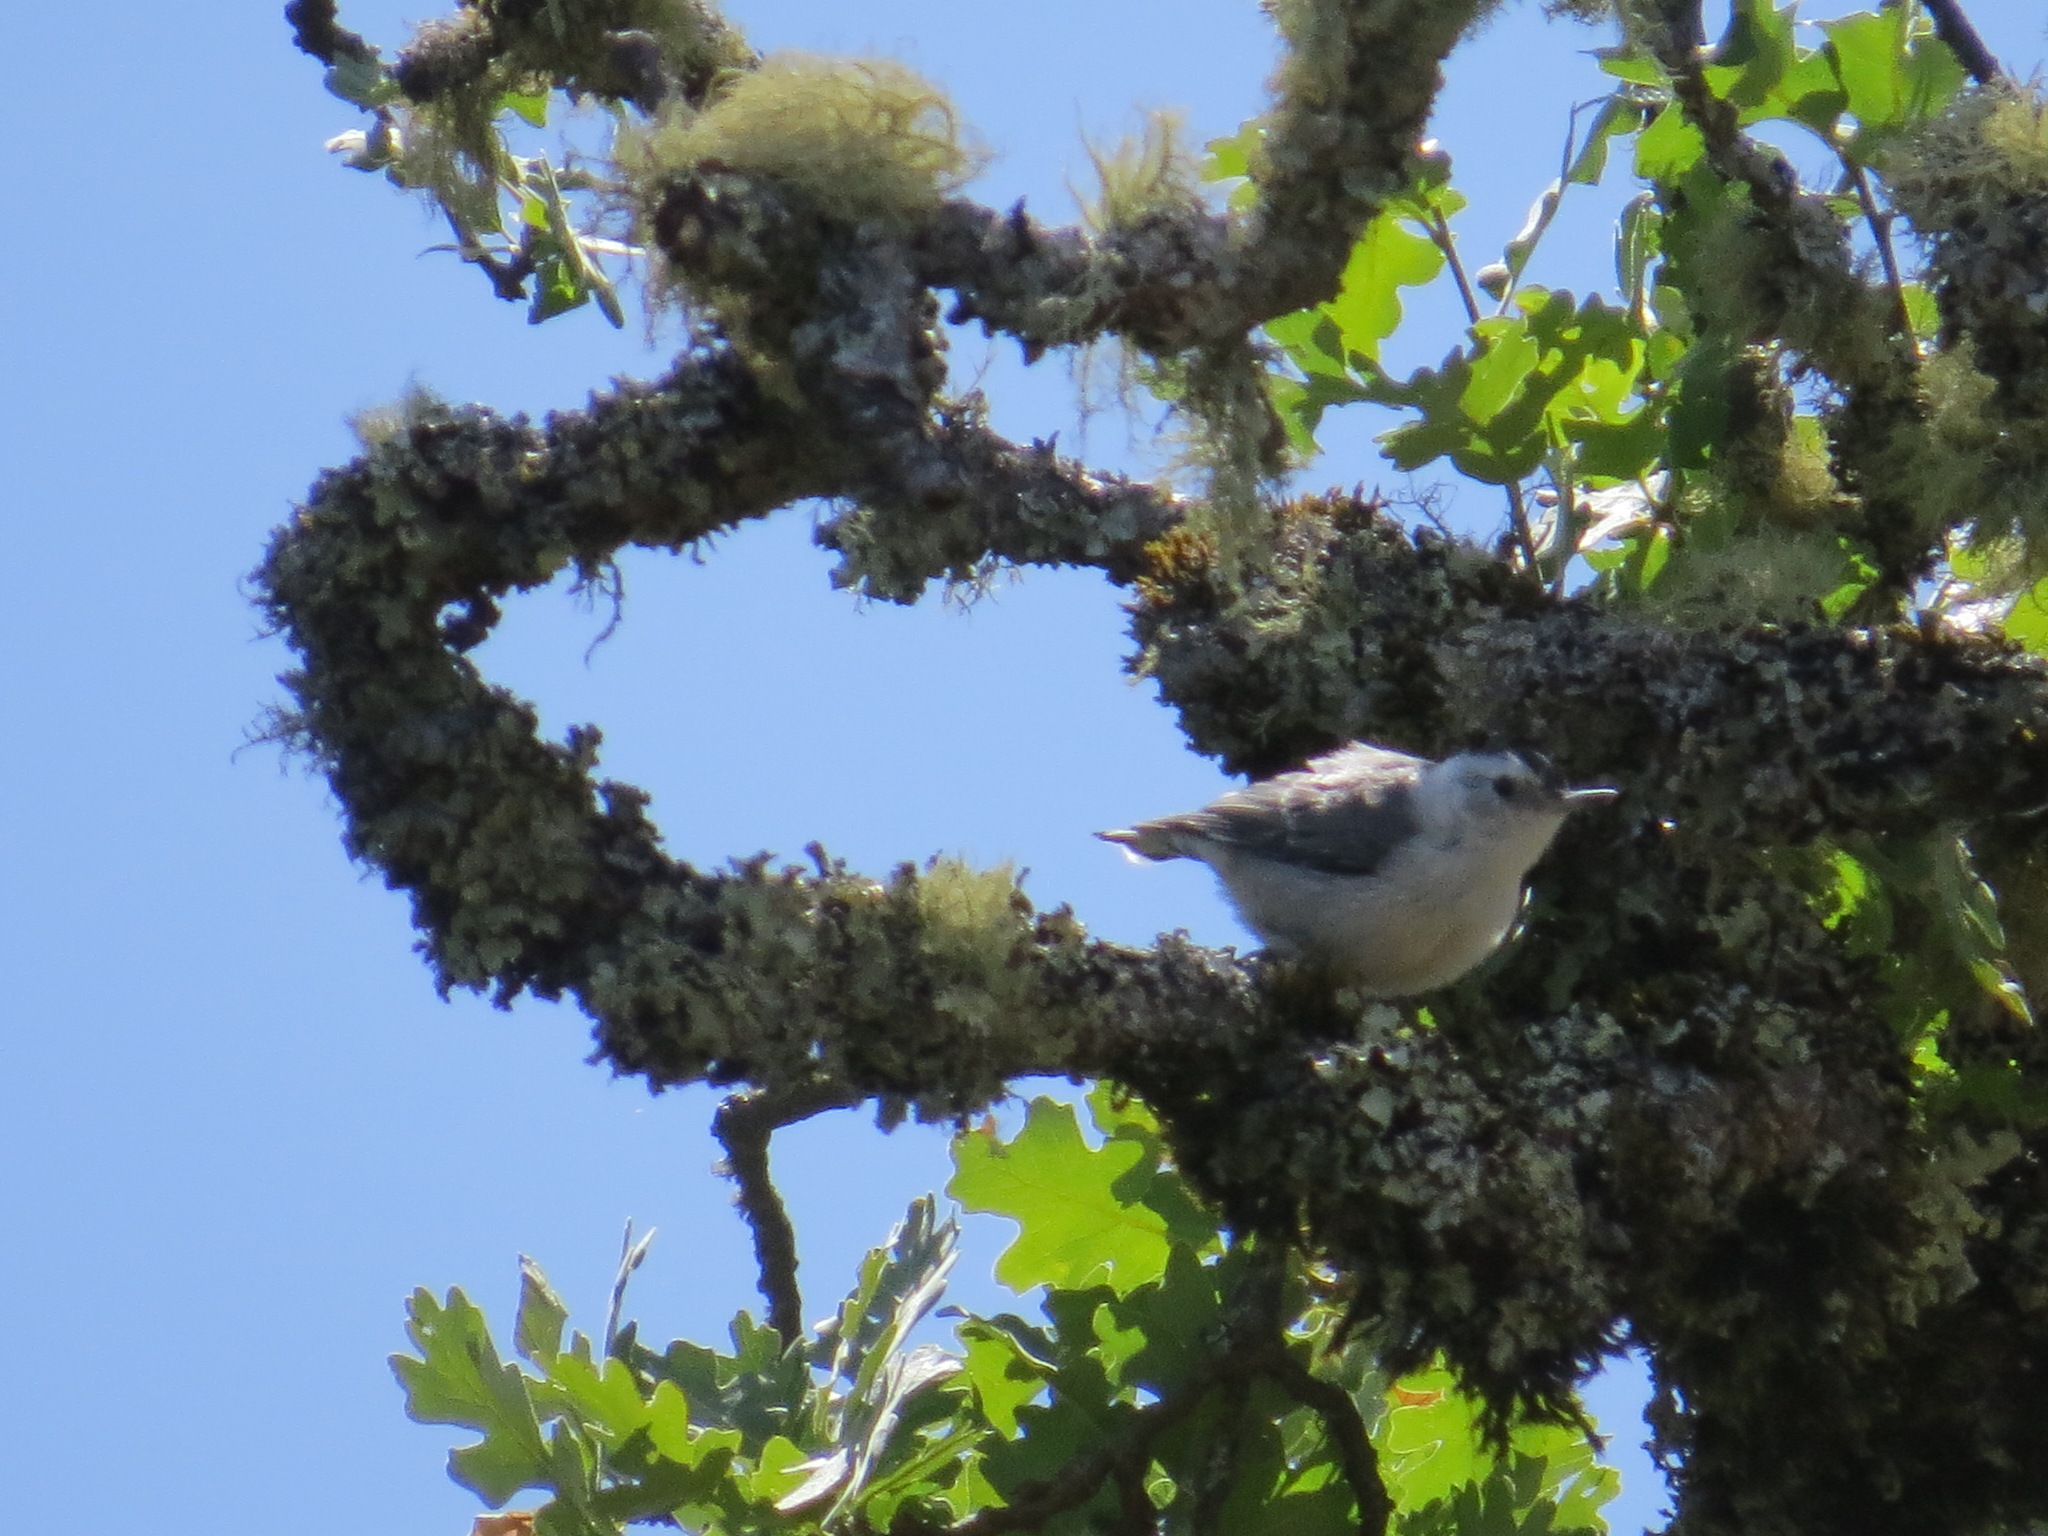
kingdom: Animalia
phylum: Chordata
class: Aves
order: Passeriformes
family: Sittidae
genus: Sitta
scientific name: Sitta carolinensis
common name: White-breasted nuthatch
